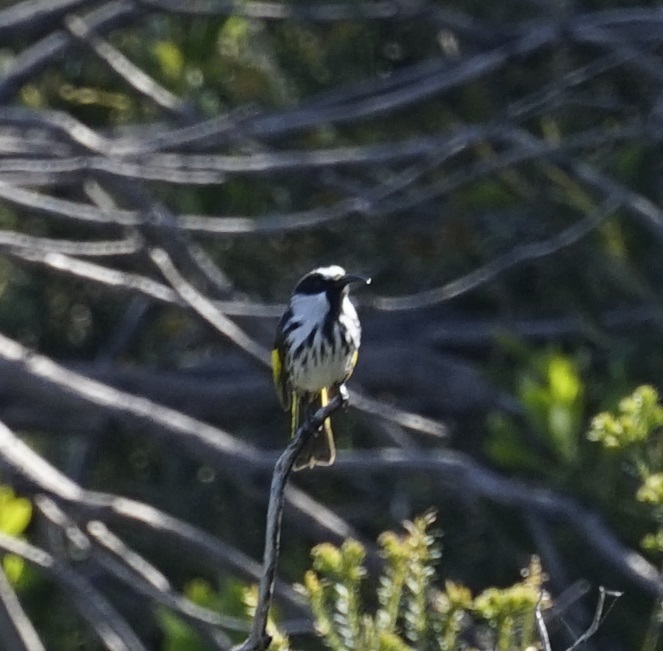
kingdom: Animalia
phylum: Chordata
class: Aves
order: Passeriformes
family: Meliphagidae
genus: Phylidonyris
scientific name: Phylidonyris niger
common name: White-cheeked honeyeater
